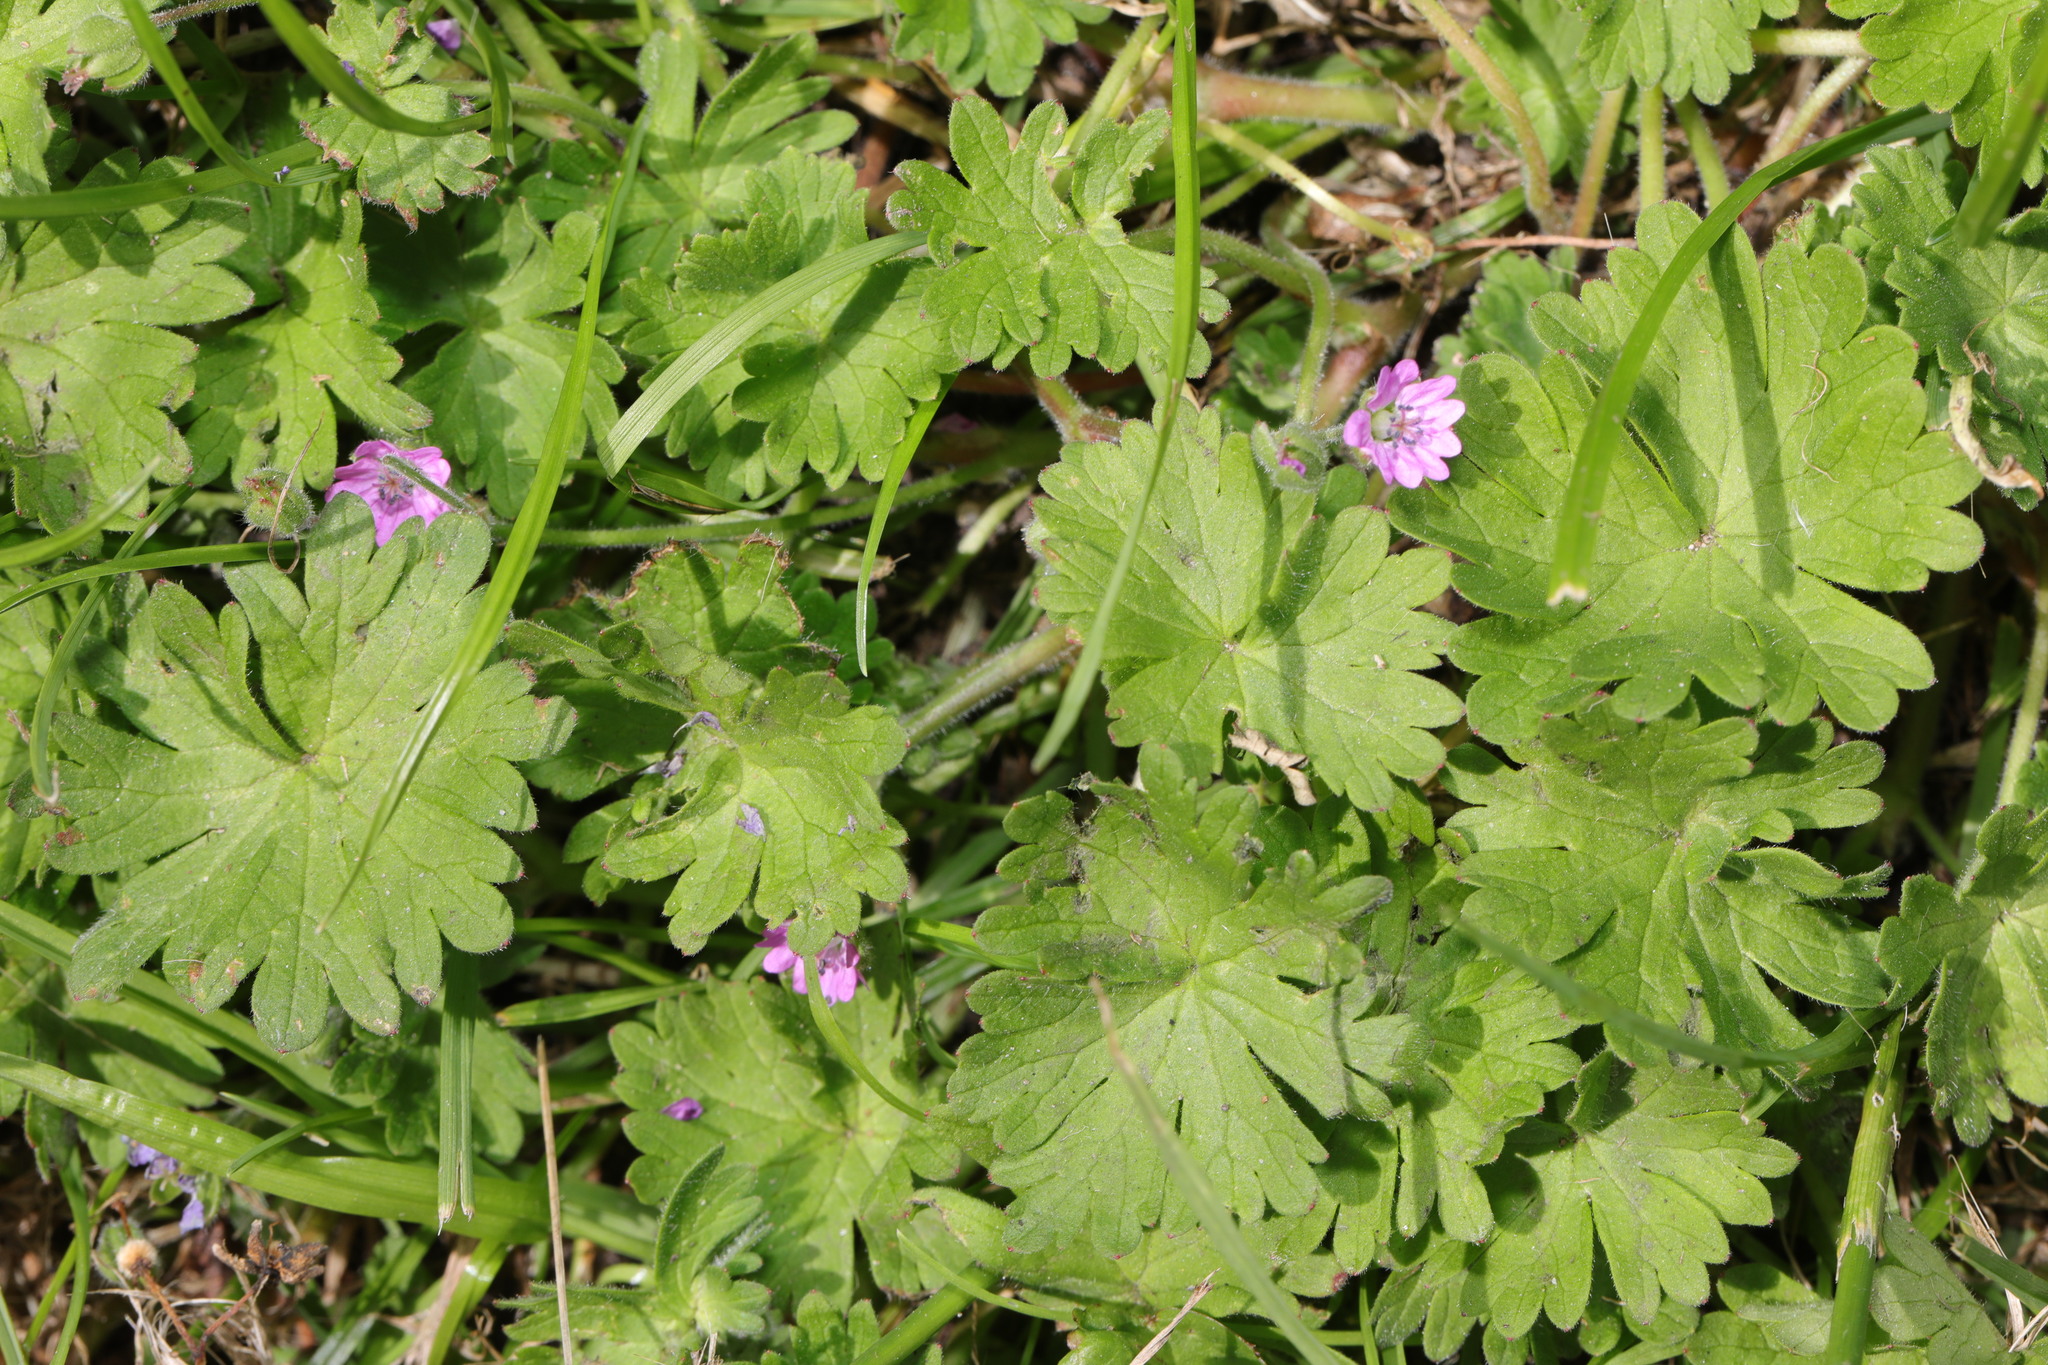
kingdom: Plantae
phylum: Tracheophyta
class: Magnoliopsida
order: Geraniales
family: Geraniaceae
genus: Geranium
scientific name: Geranium molle
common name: Dove's-foot crane's-bill
